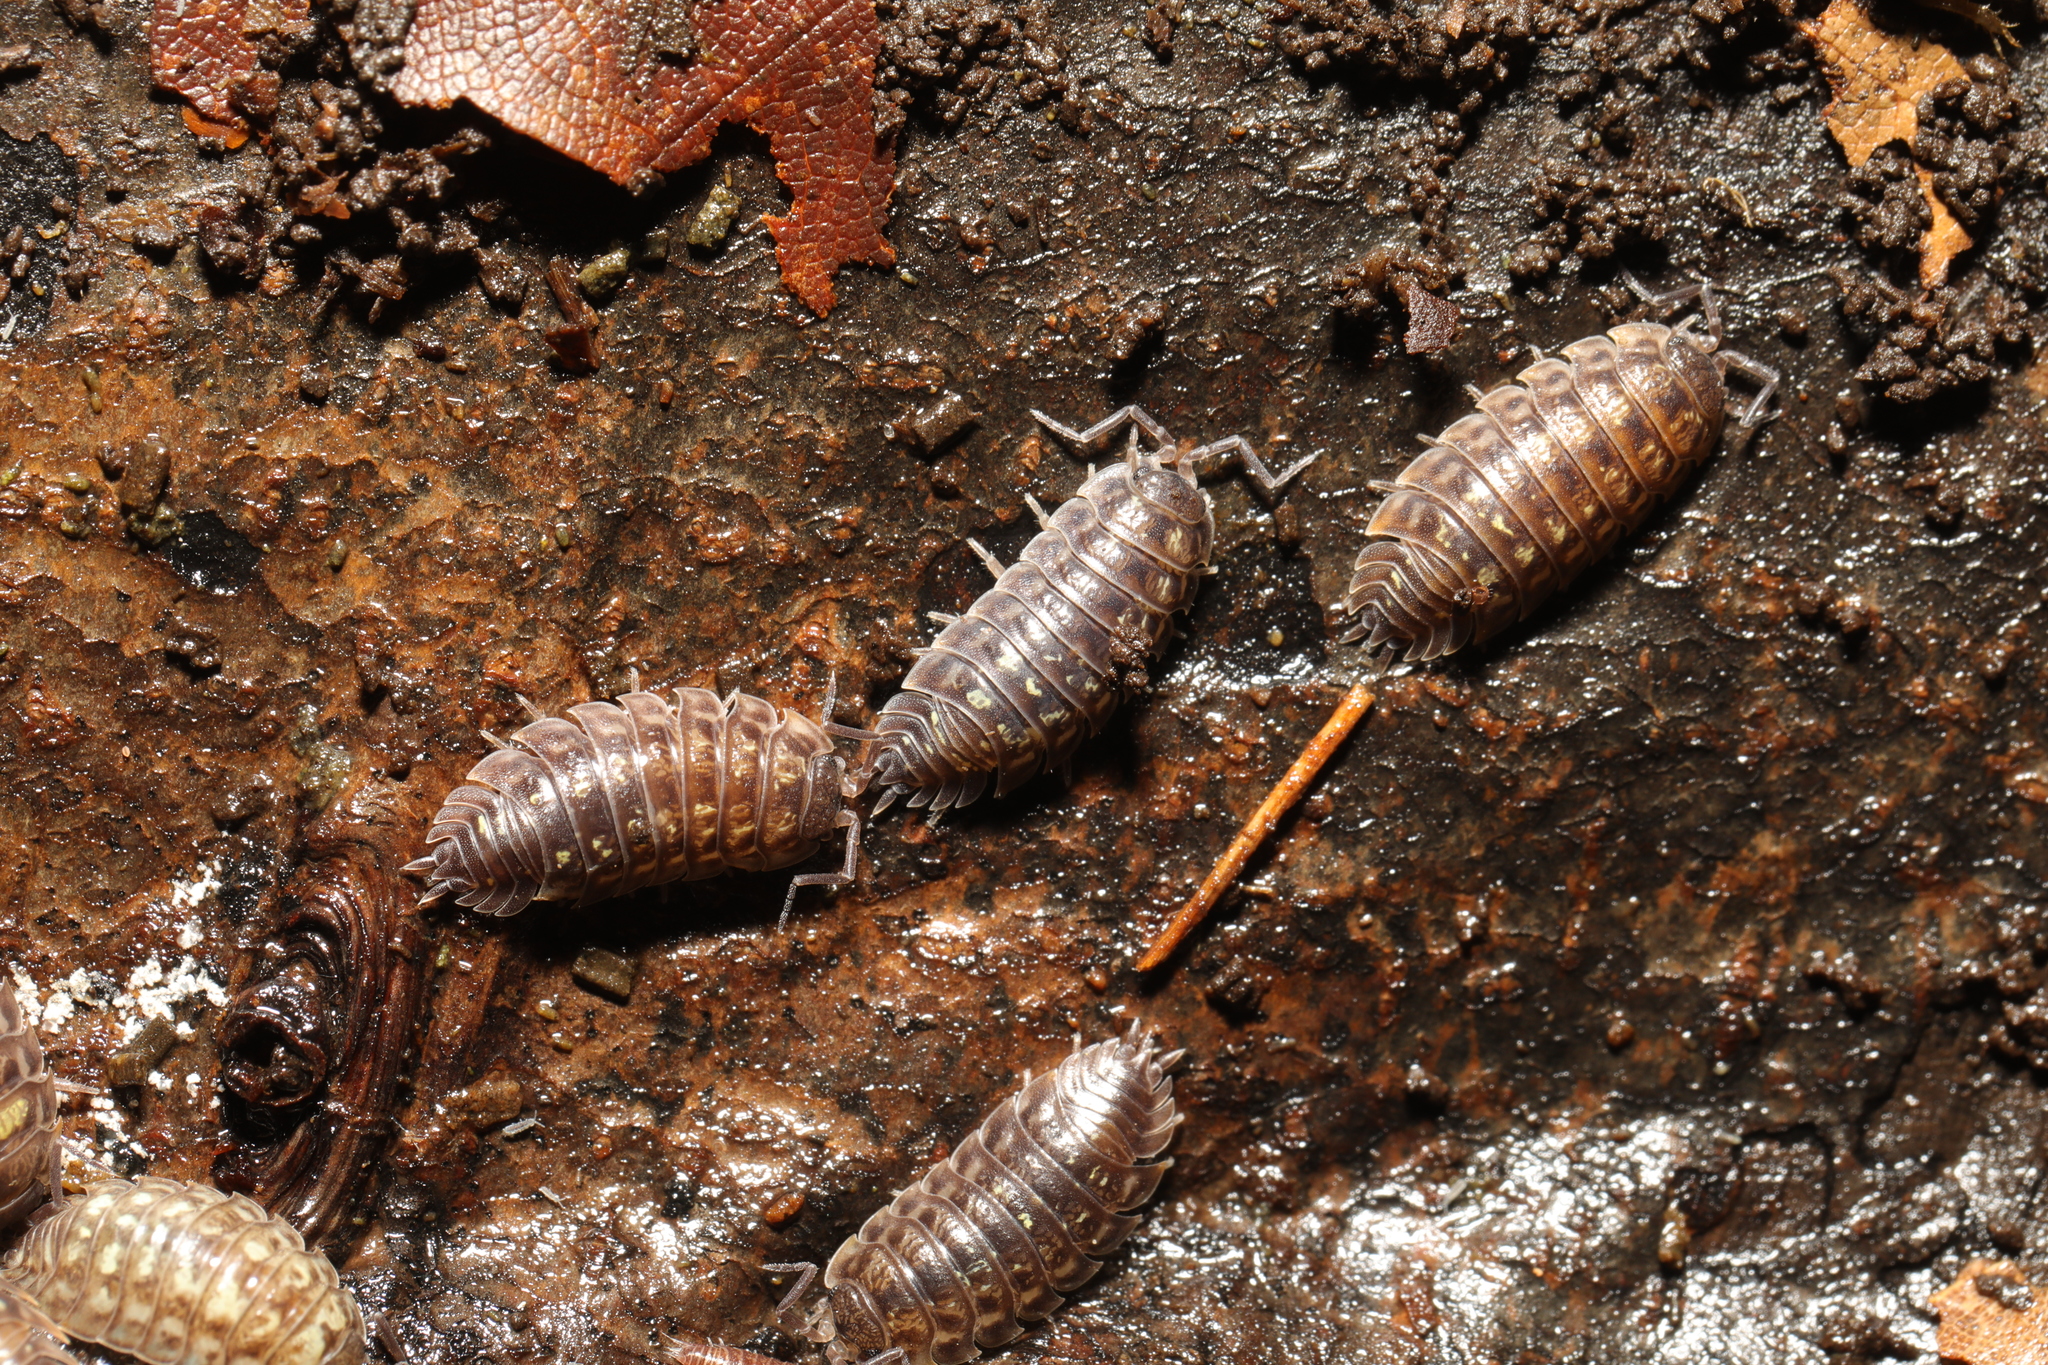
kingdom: Animalia
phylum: Arthropoda
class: Malacostraca
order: Isopoda
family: Oniscidae
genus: Oniscus
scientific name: Oniscus asellus
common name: Common shiny woodlouse
